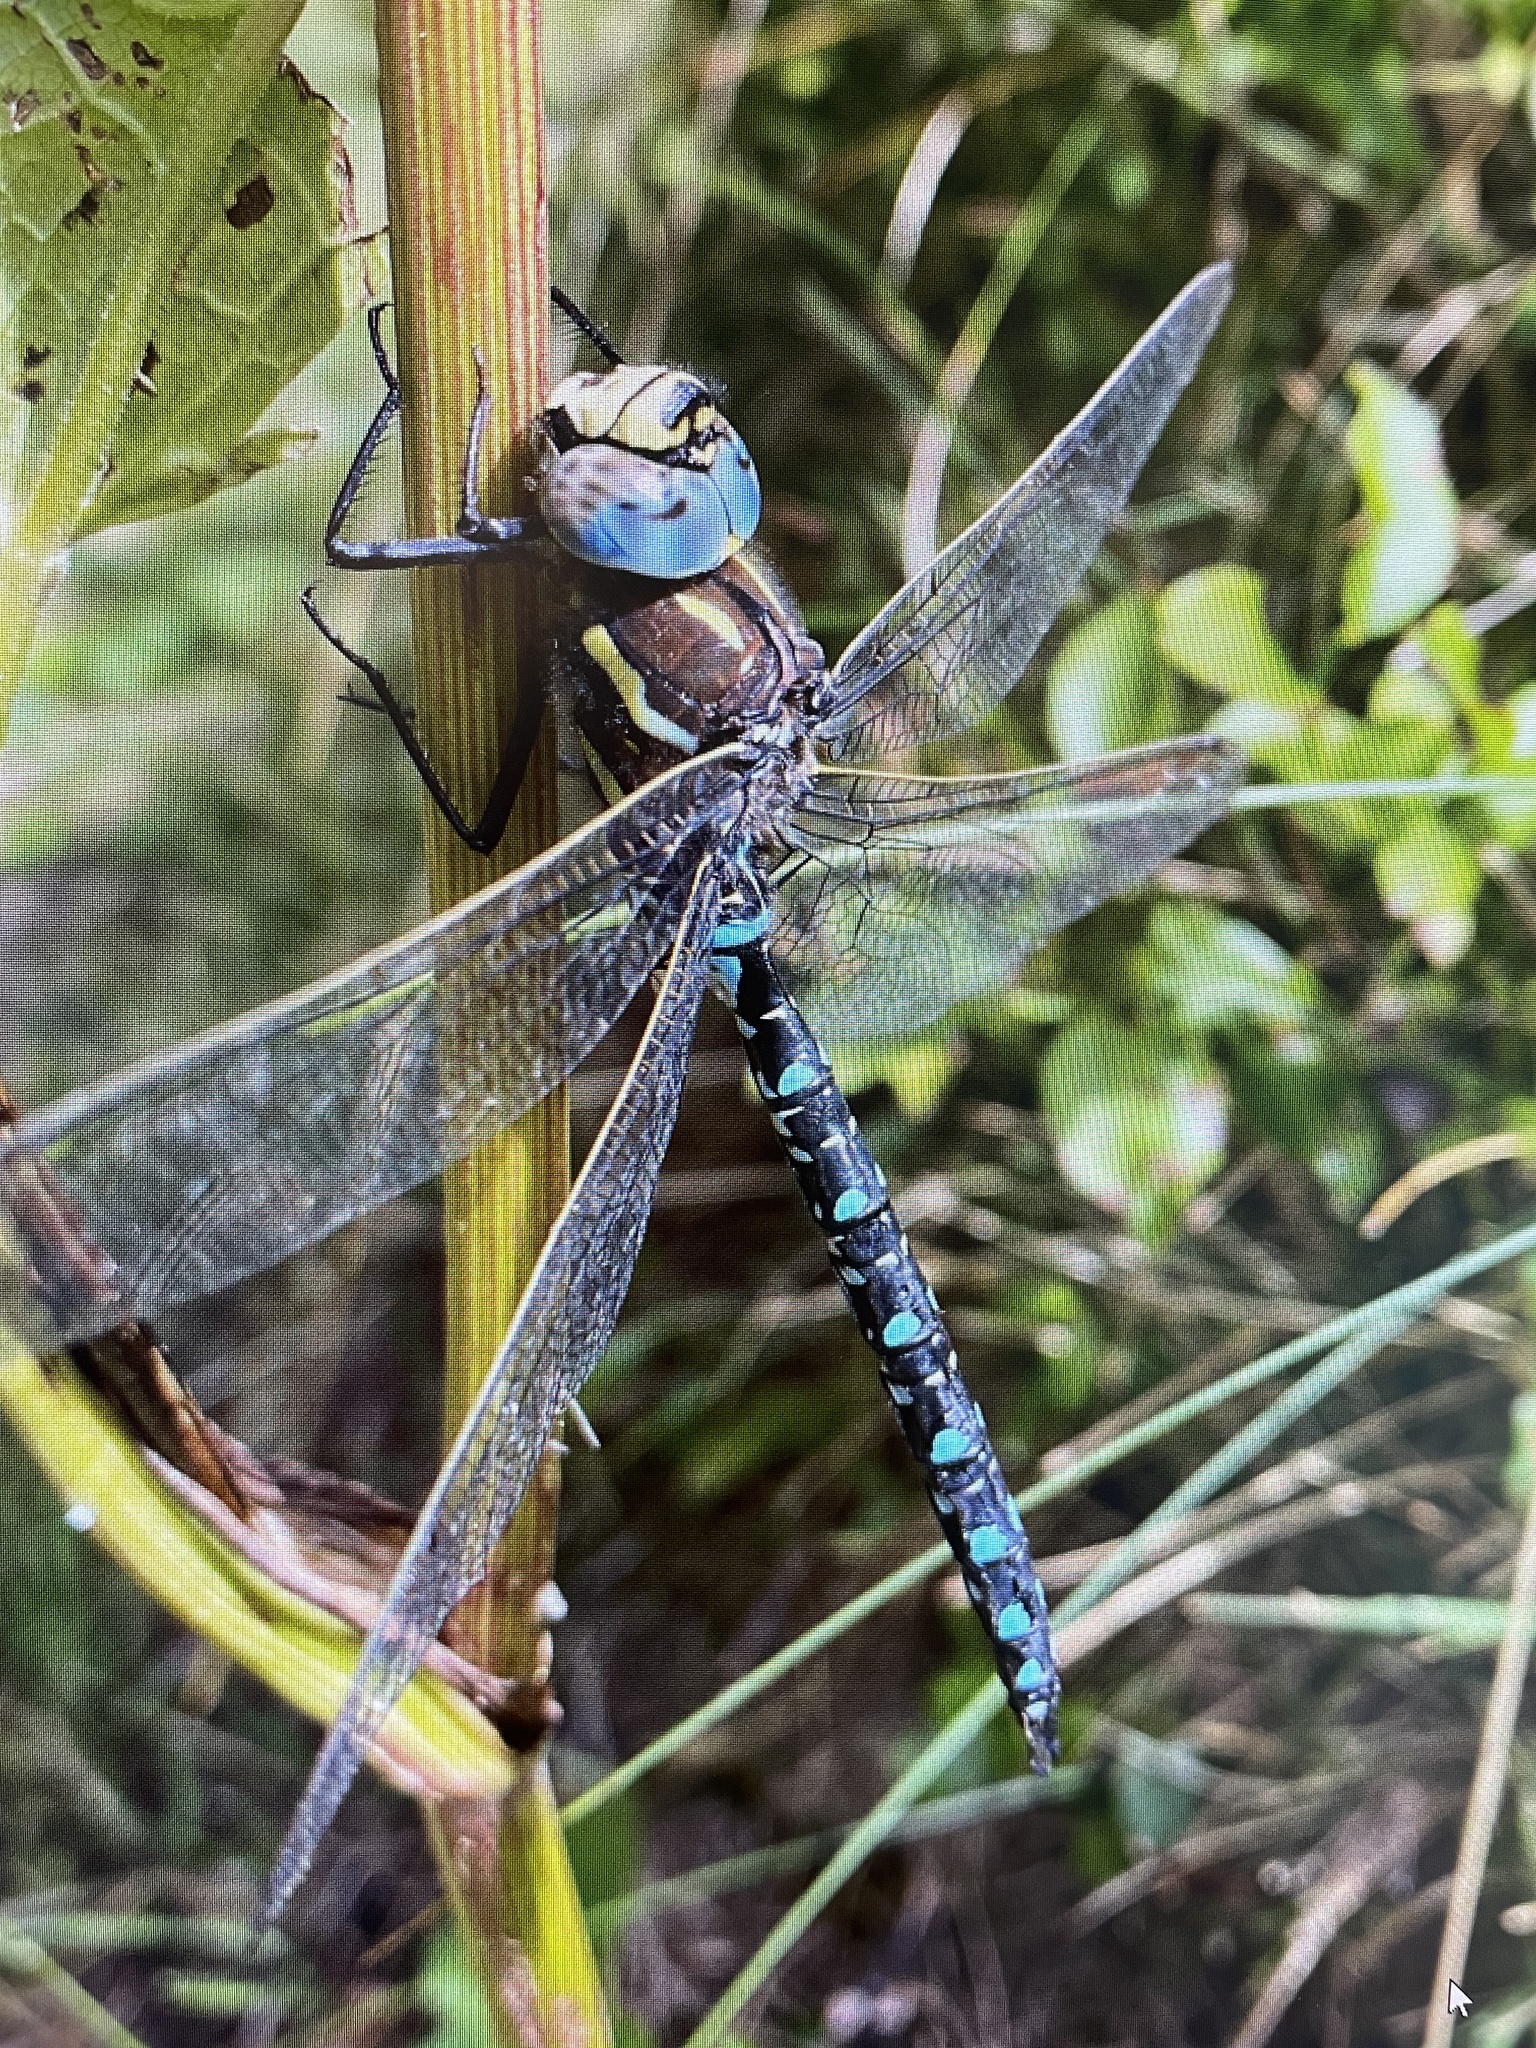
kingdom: Animalia
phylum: Arthropoda
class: Insecta
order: Odonata
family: Aeshnidae
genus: Aeshna
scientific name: Aeshna juncea
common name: Moorland hawker
